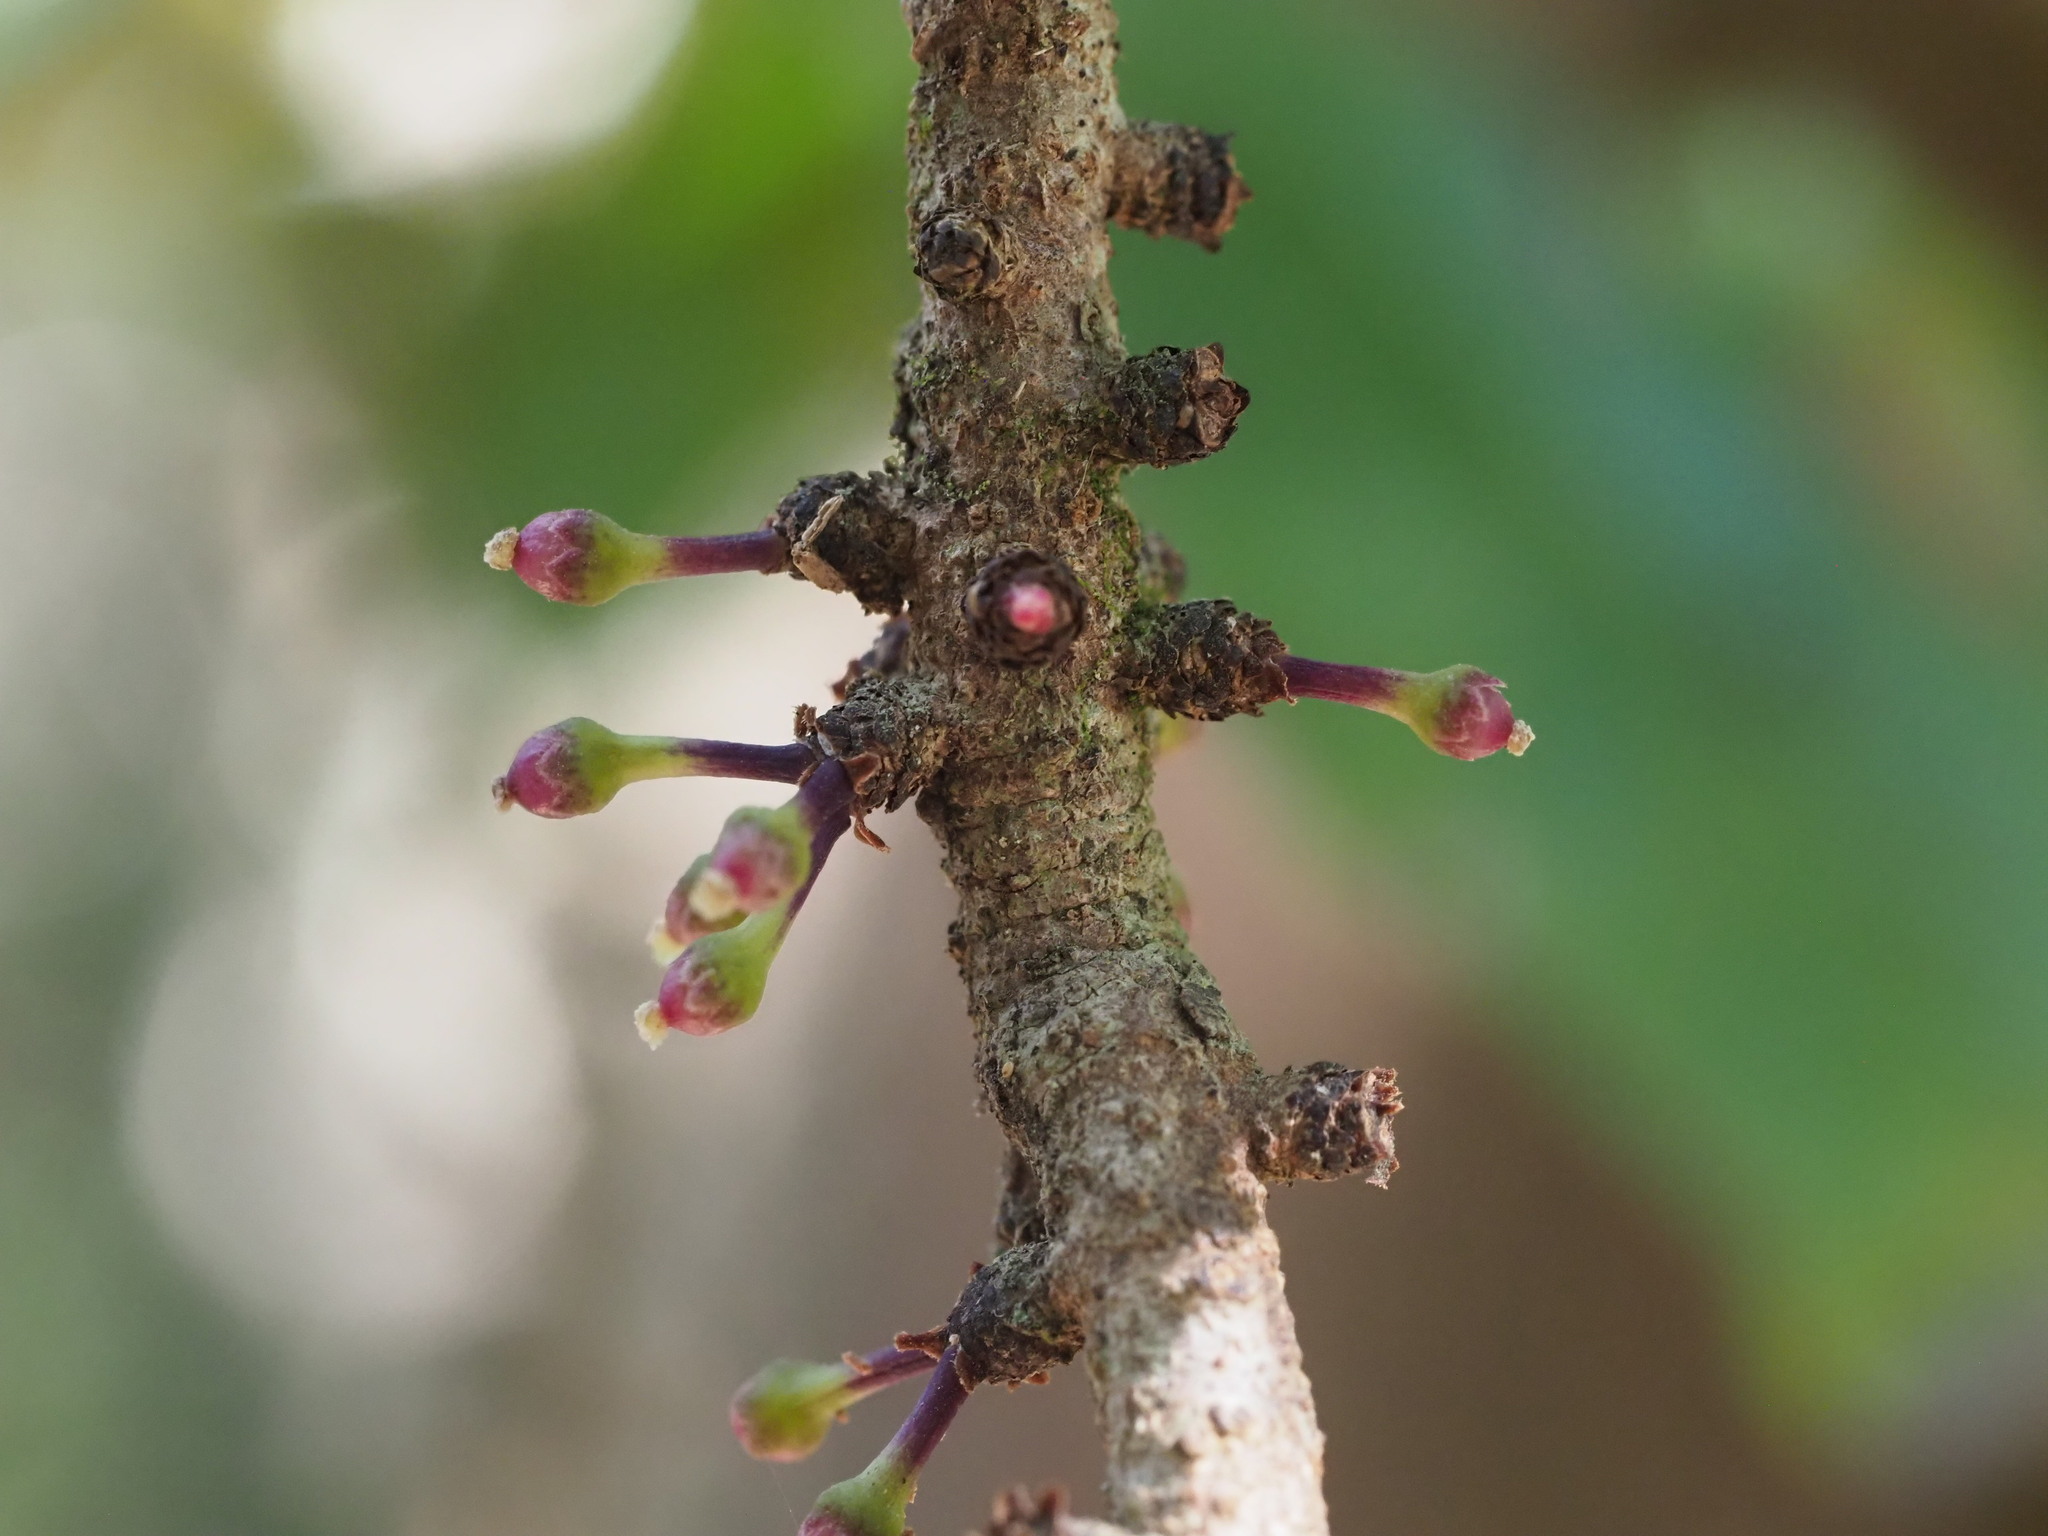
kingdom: Plantae
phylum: Tracheophyta
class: Magnoliopsida
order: Ericales
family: Primulaceae
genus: Myrsine
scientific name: Myrsine lanaiensis
